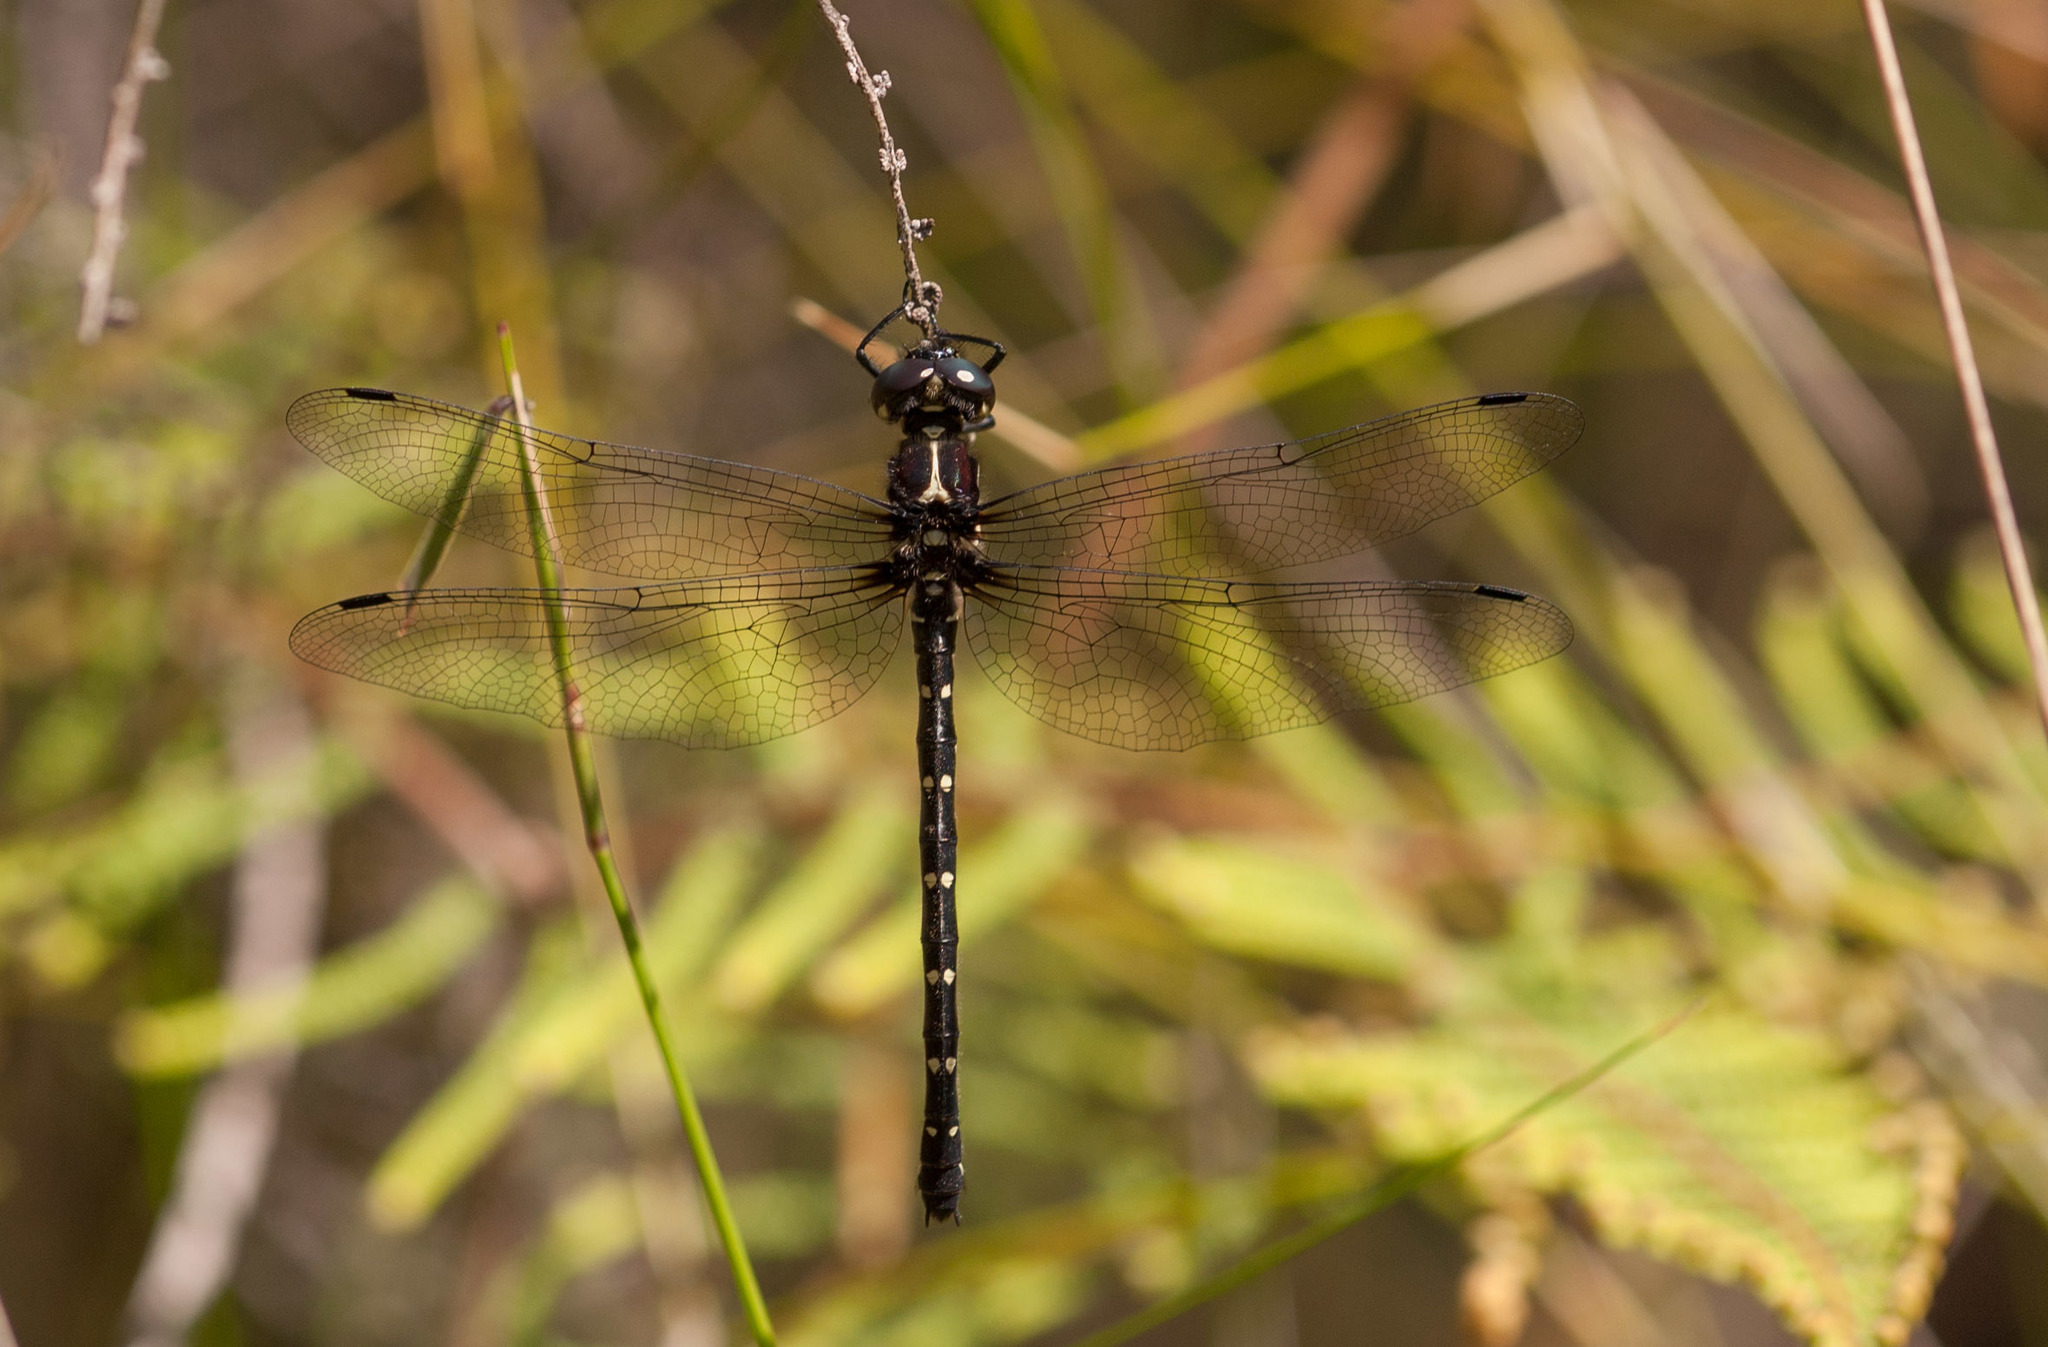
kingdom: Animalia
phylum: Arthropoda
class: Insecta
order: Odonata
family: Synthemistidae
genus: Eusynthemis
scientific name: Eusynthemis guttata
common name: Southern tigertail
